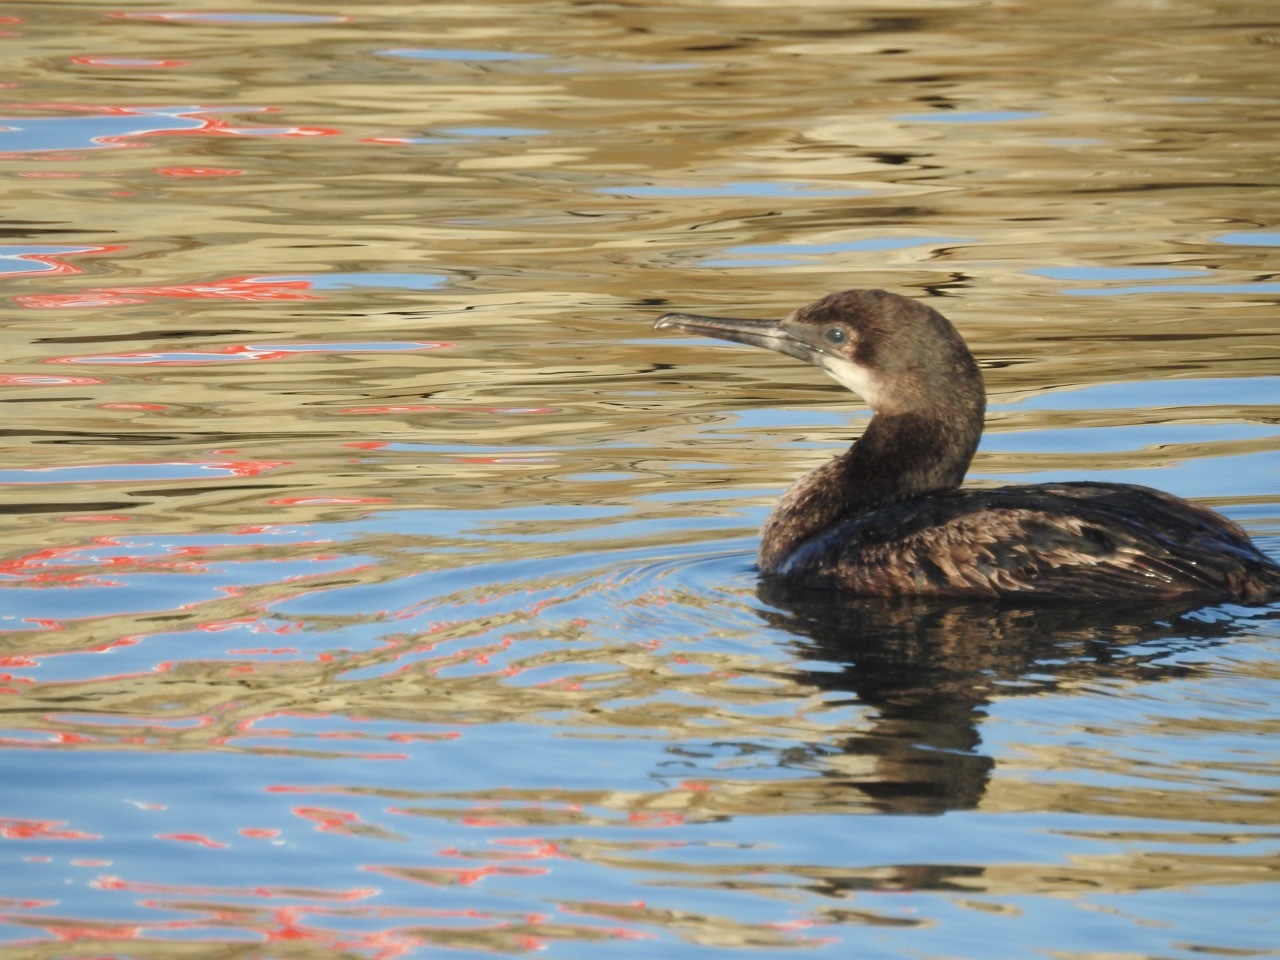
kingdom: Animalia
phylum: Chordata
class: Aves
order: Suliformes
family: Phalacrocoracidae
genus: Urile
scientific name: Urile penicillatus
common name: Brandt's cormorant
